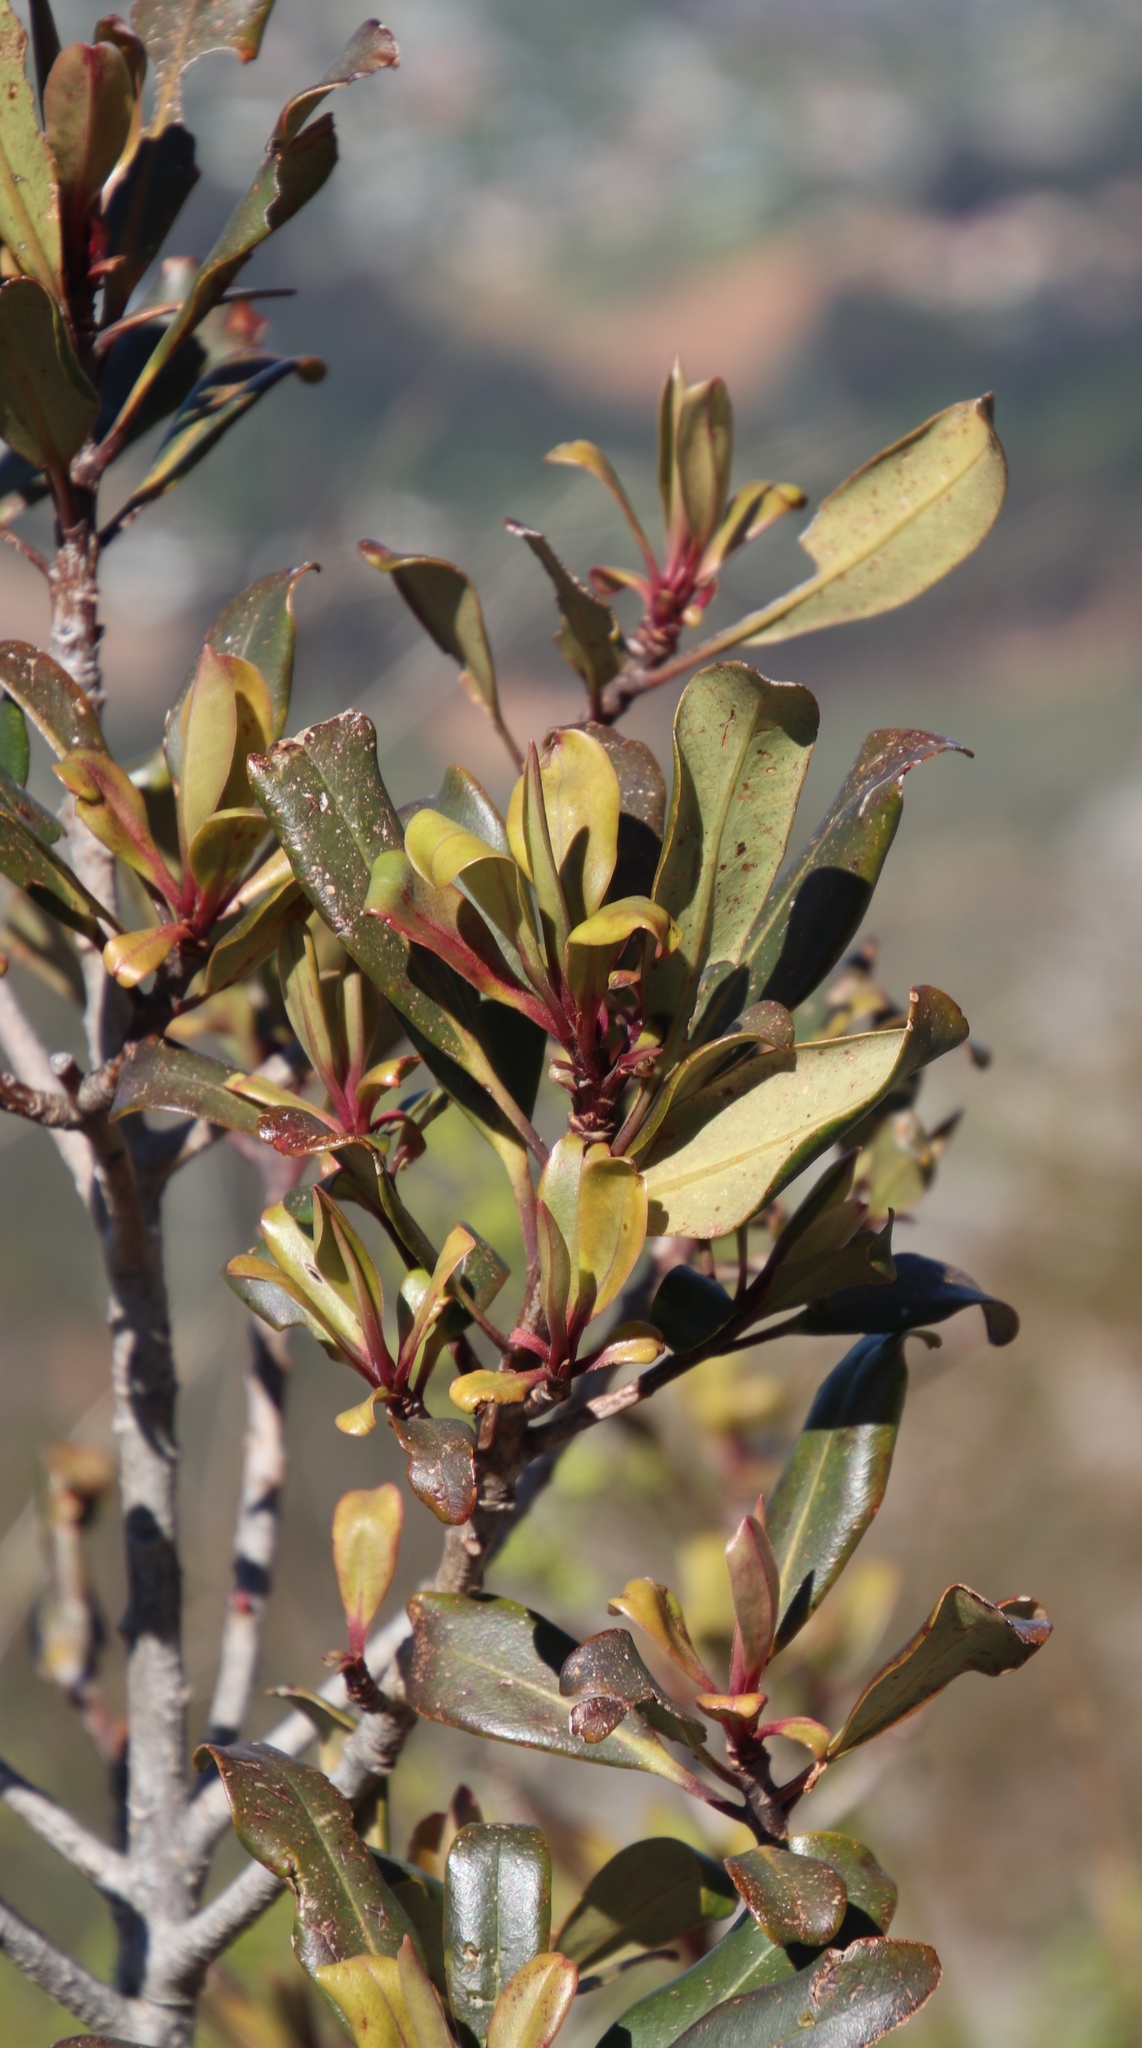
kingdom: Plantae
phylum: Tracheophyta
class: Magnoliopsida
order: Ericales
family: Primulaceae
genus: Myrsine
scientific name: Myrsine melanophloeos
